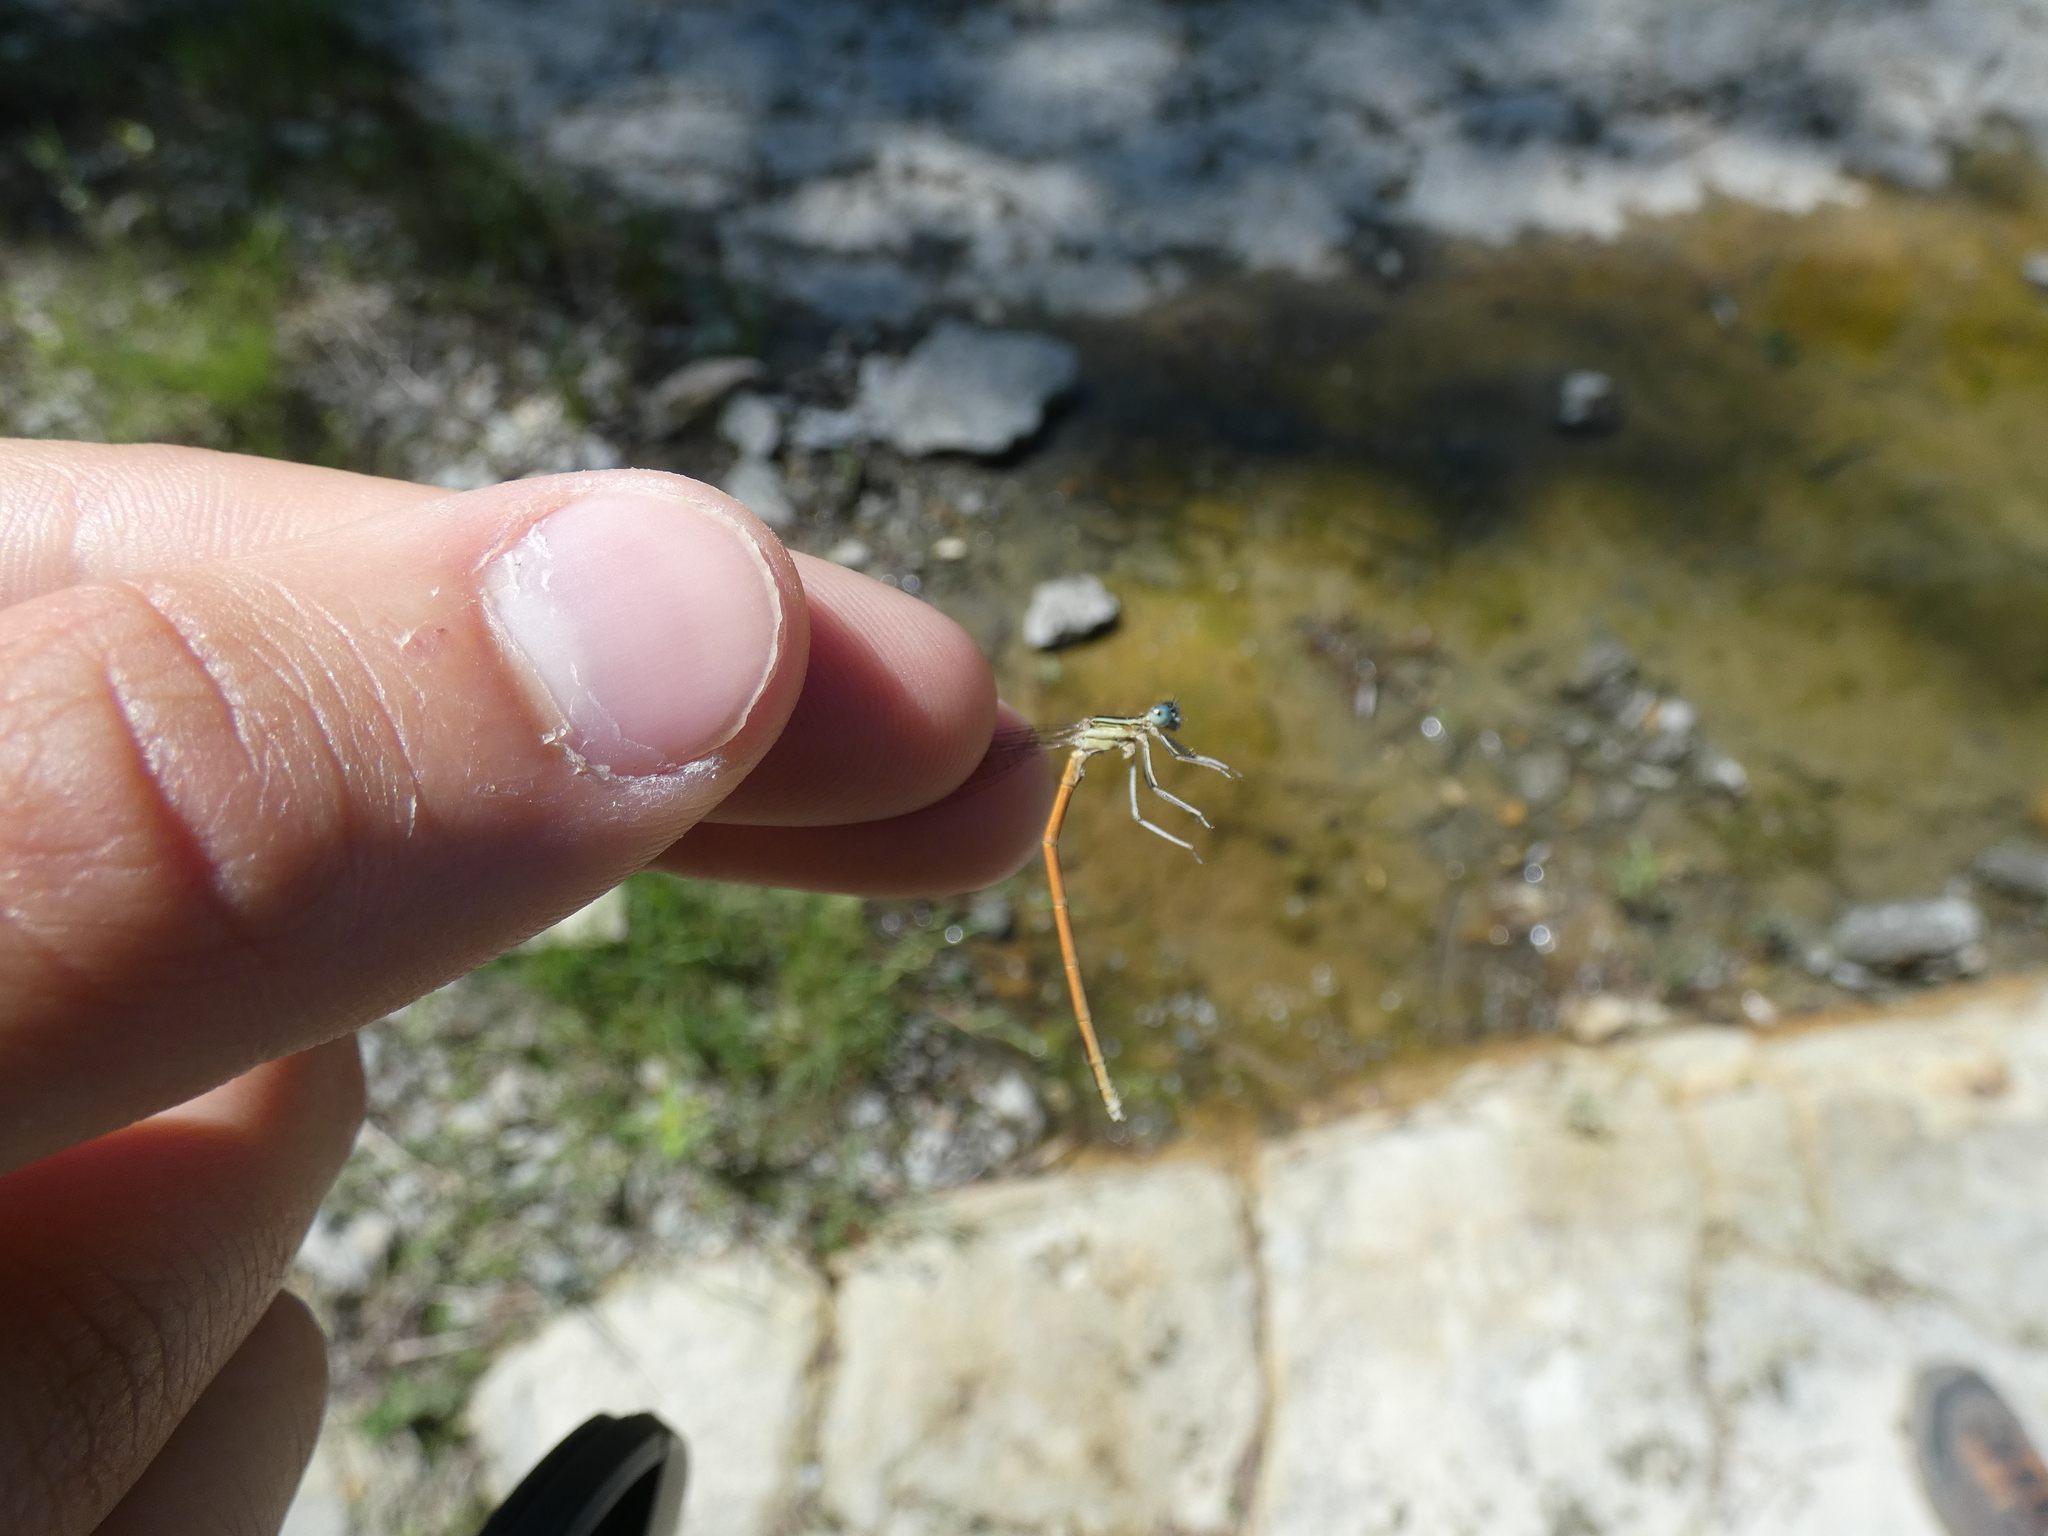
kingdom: Animalia
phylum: Arthropoda
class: Insecta
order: Odonata
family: Platycnemididae
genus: Platycnemis
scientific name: Platycnemis acutipennis
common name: Orange featherleg
